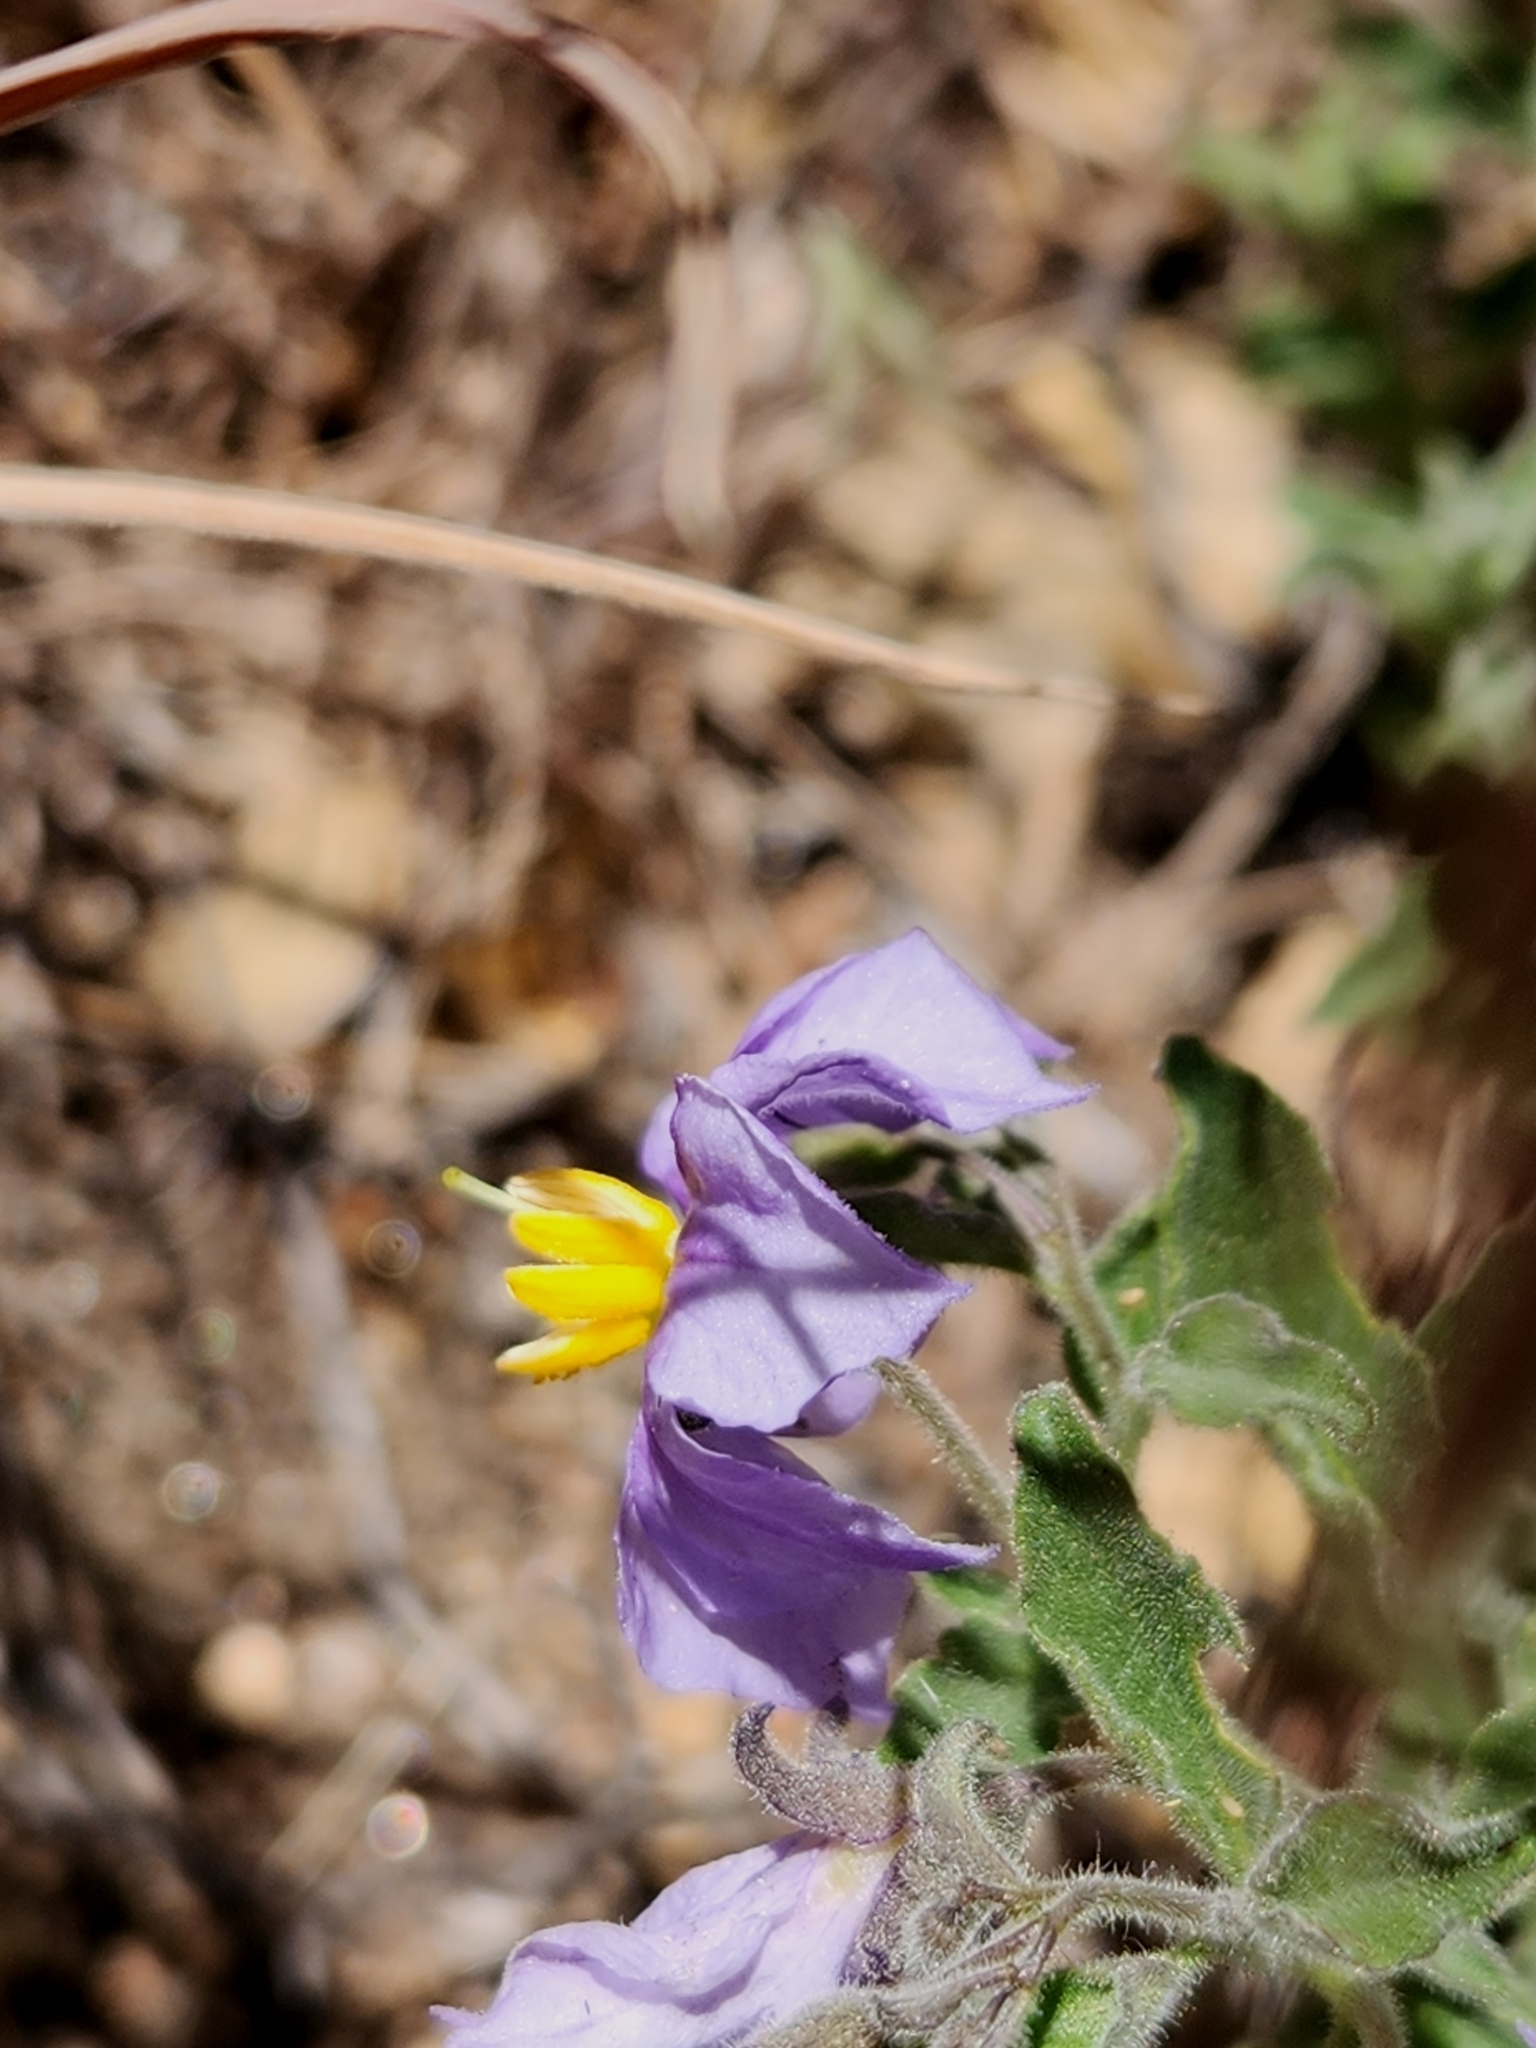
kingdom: Plantae
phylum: Tracheophyta
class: Magnoliopsida
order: Solanales
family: Solanaceae
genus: Solanum
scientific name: Solanum umbelliferum
